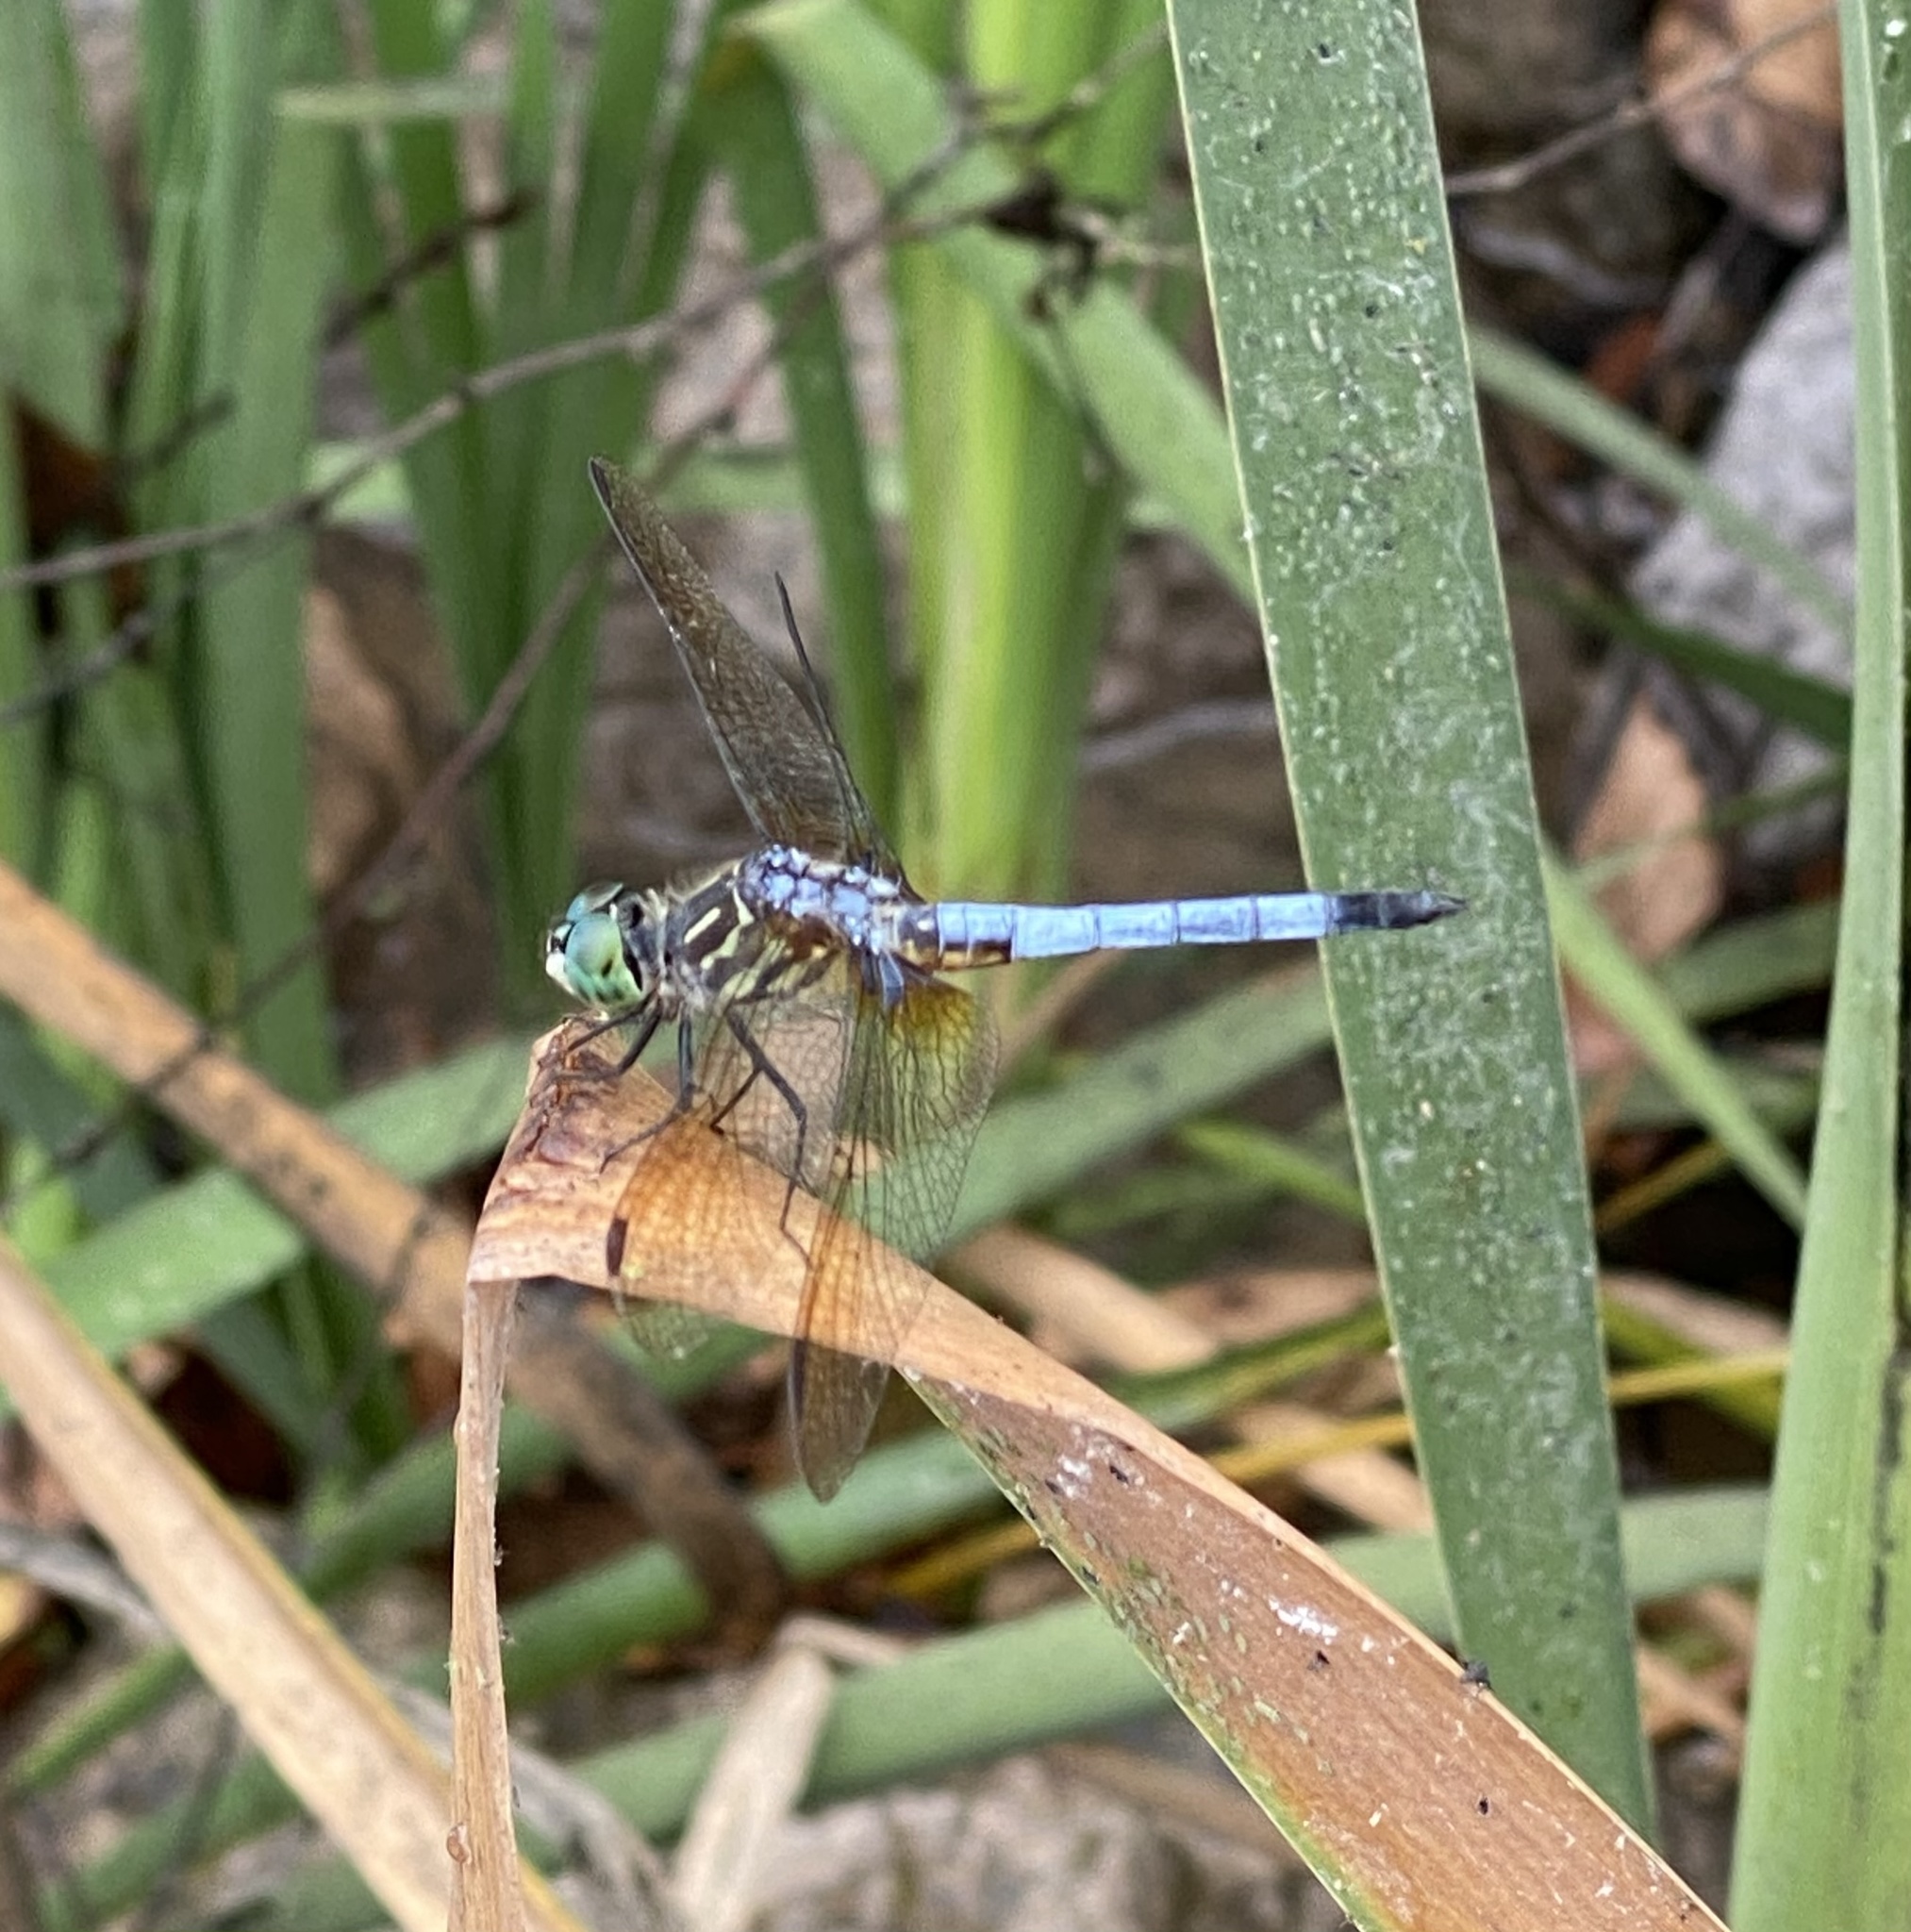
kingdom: Animalia
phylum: Arthropoda
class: Insecta
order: Odonata
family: Libellulidae
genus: Pachydiplax
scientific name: Pachydiplax longipennis
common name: Blue dasher
